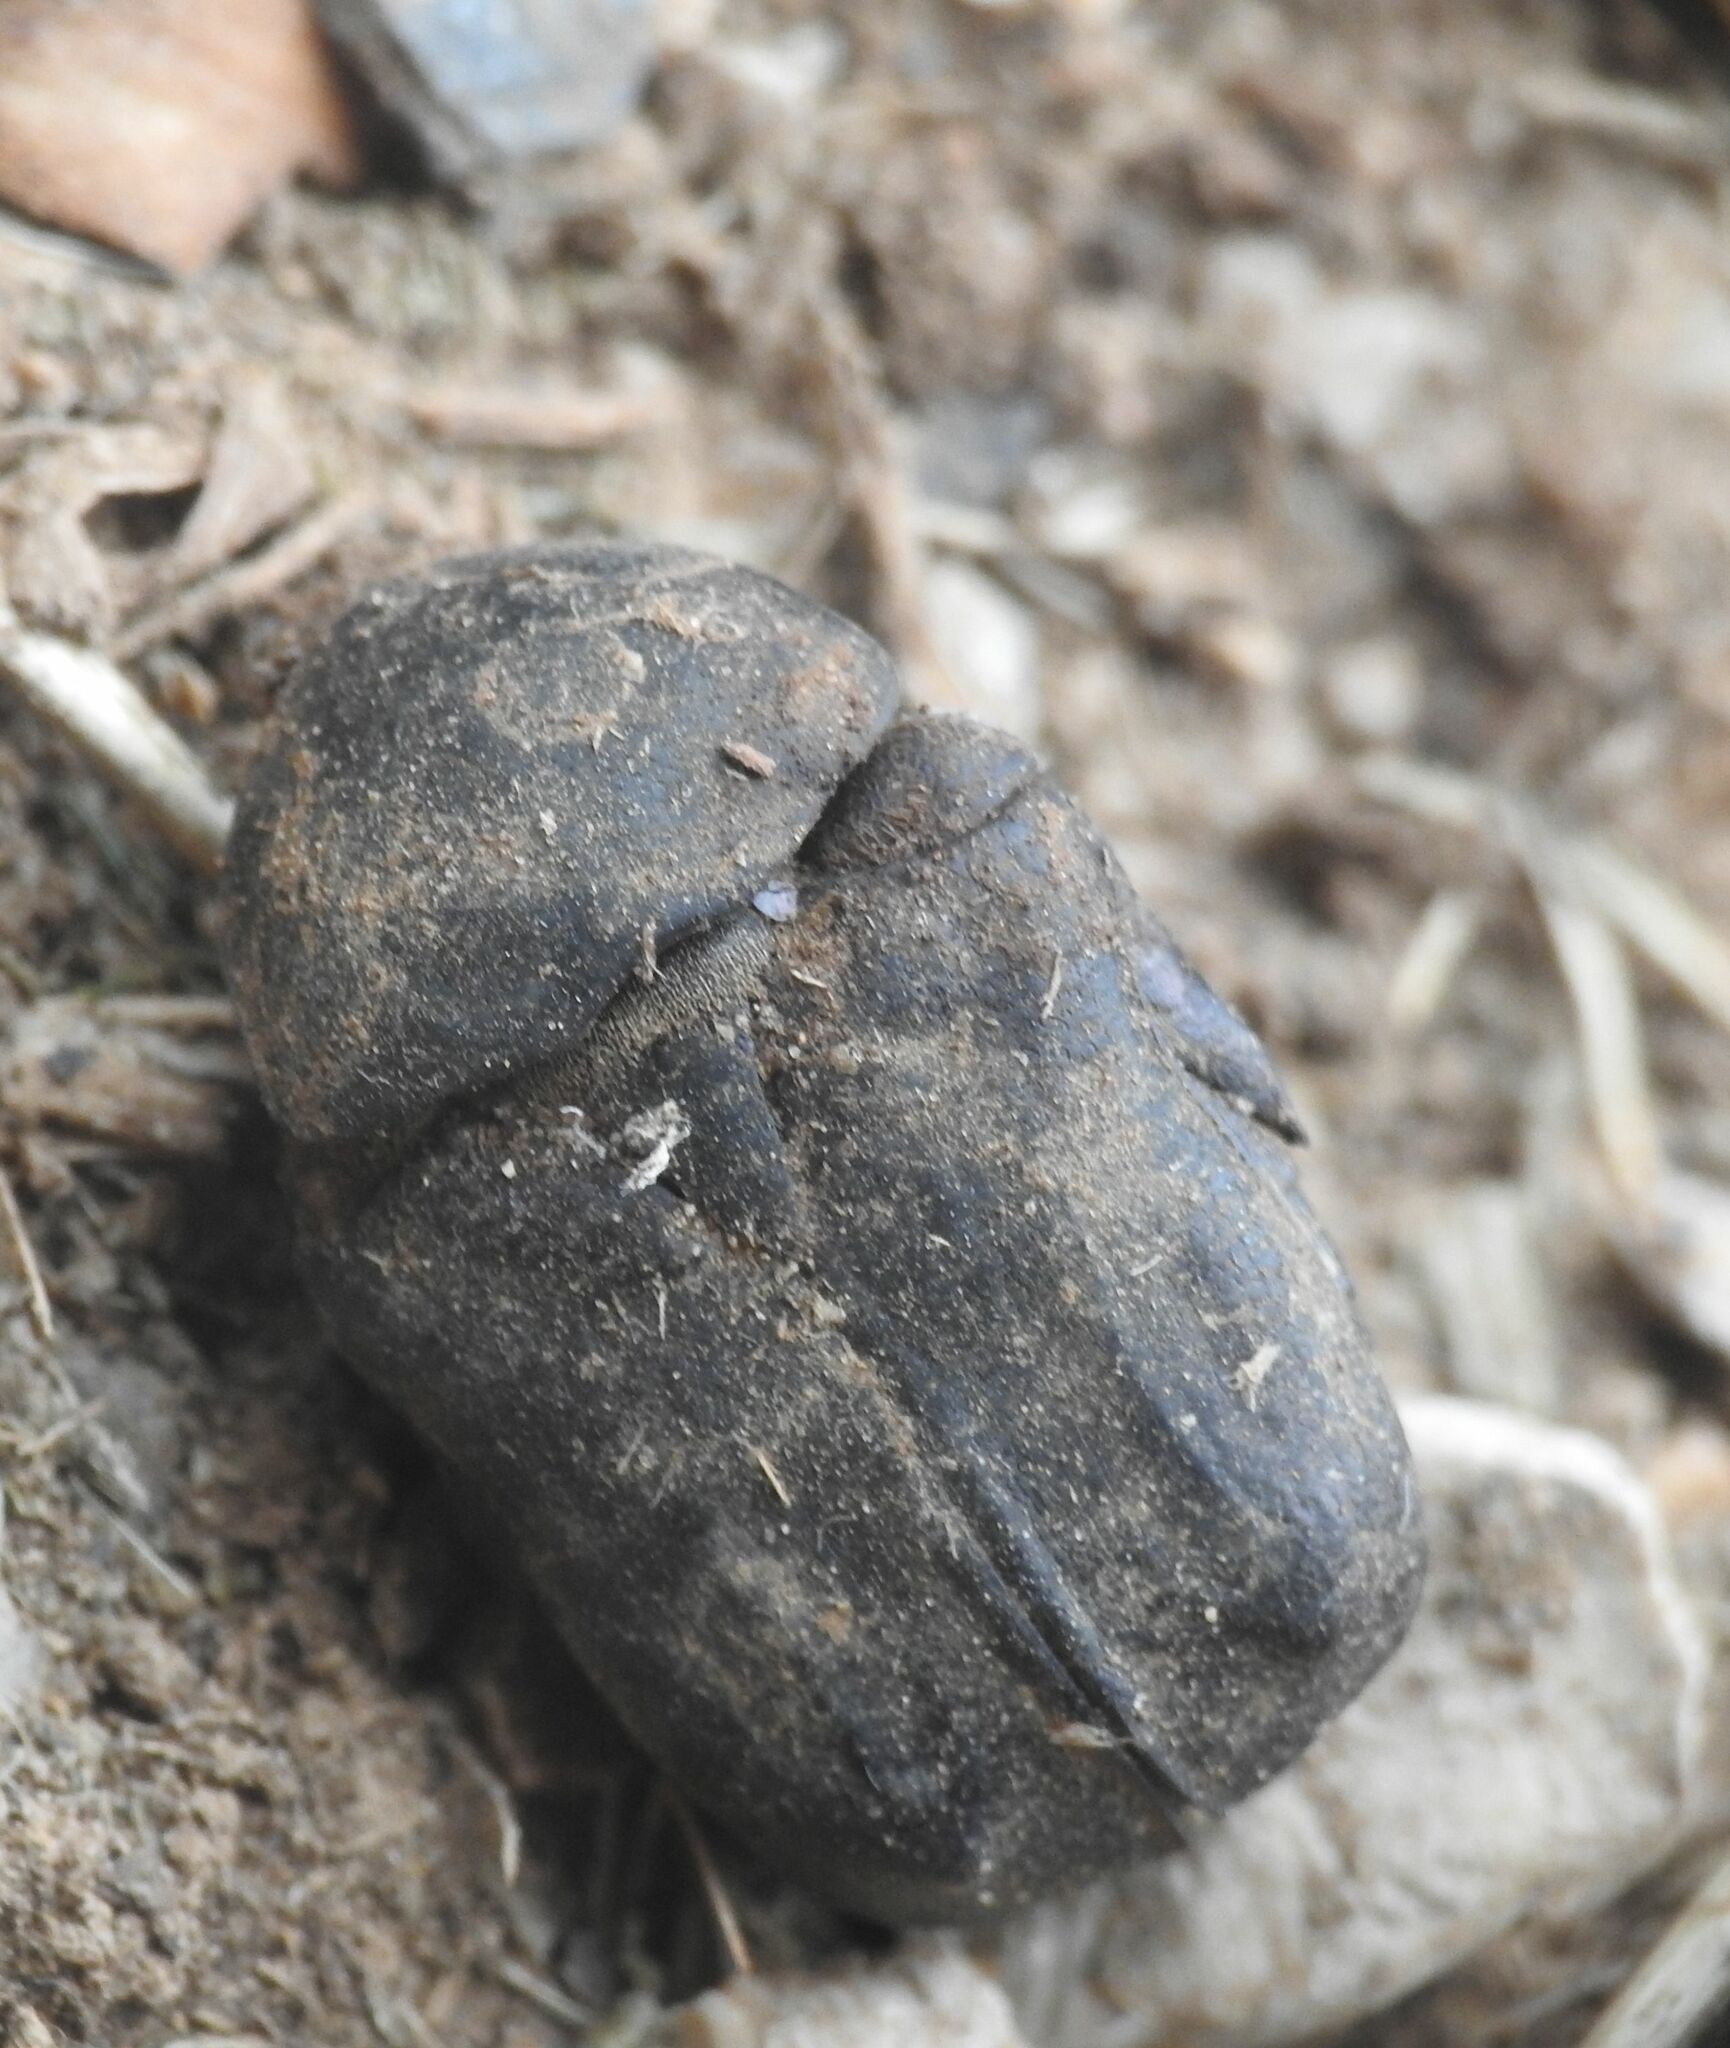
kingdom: Animalia
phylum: Arthropoda
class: Insecta
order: Coleoptera
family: Scarabaeidae
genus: Protaetia
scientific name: Protaetia morio
